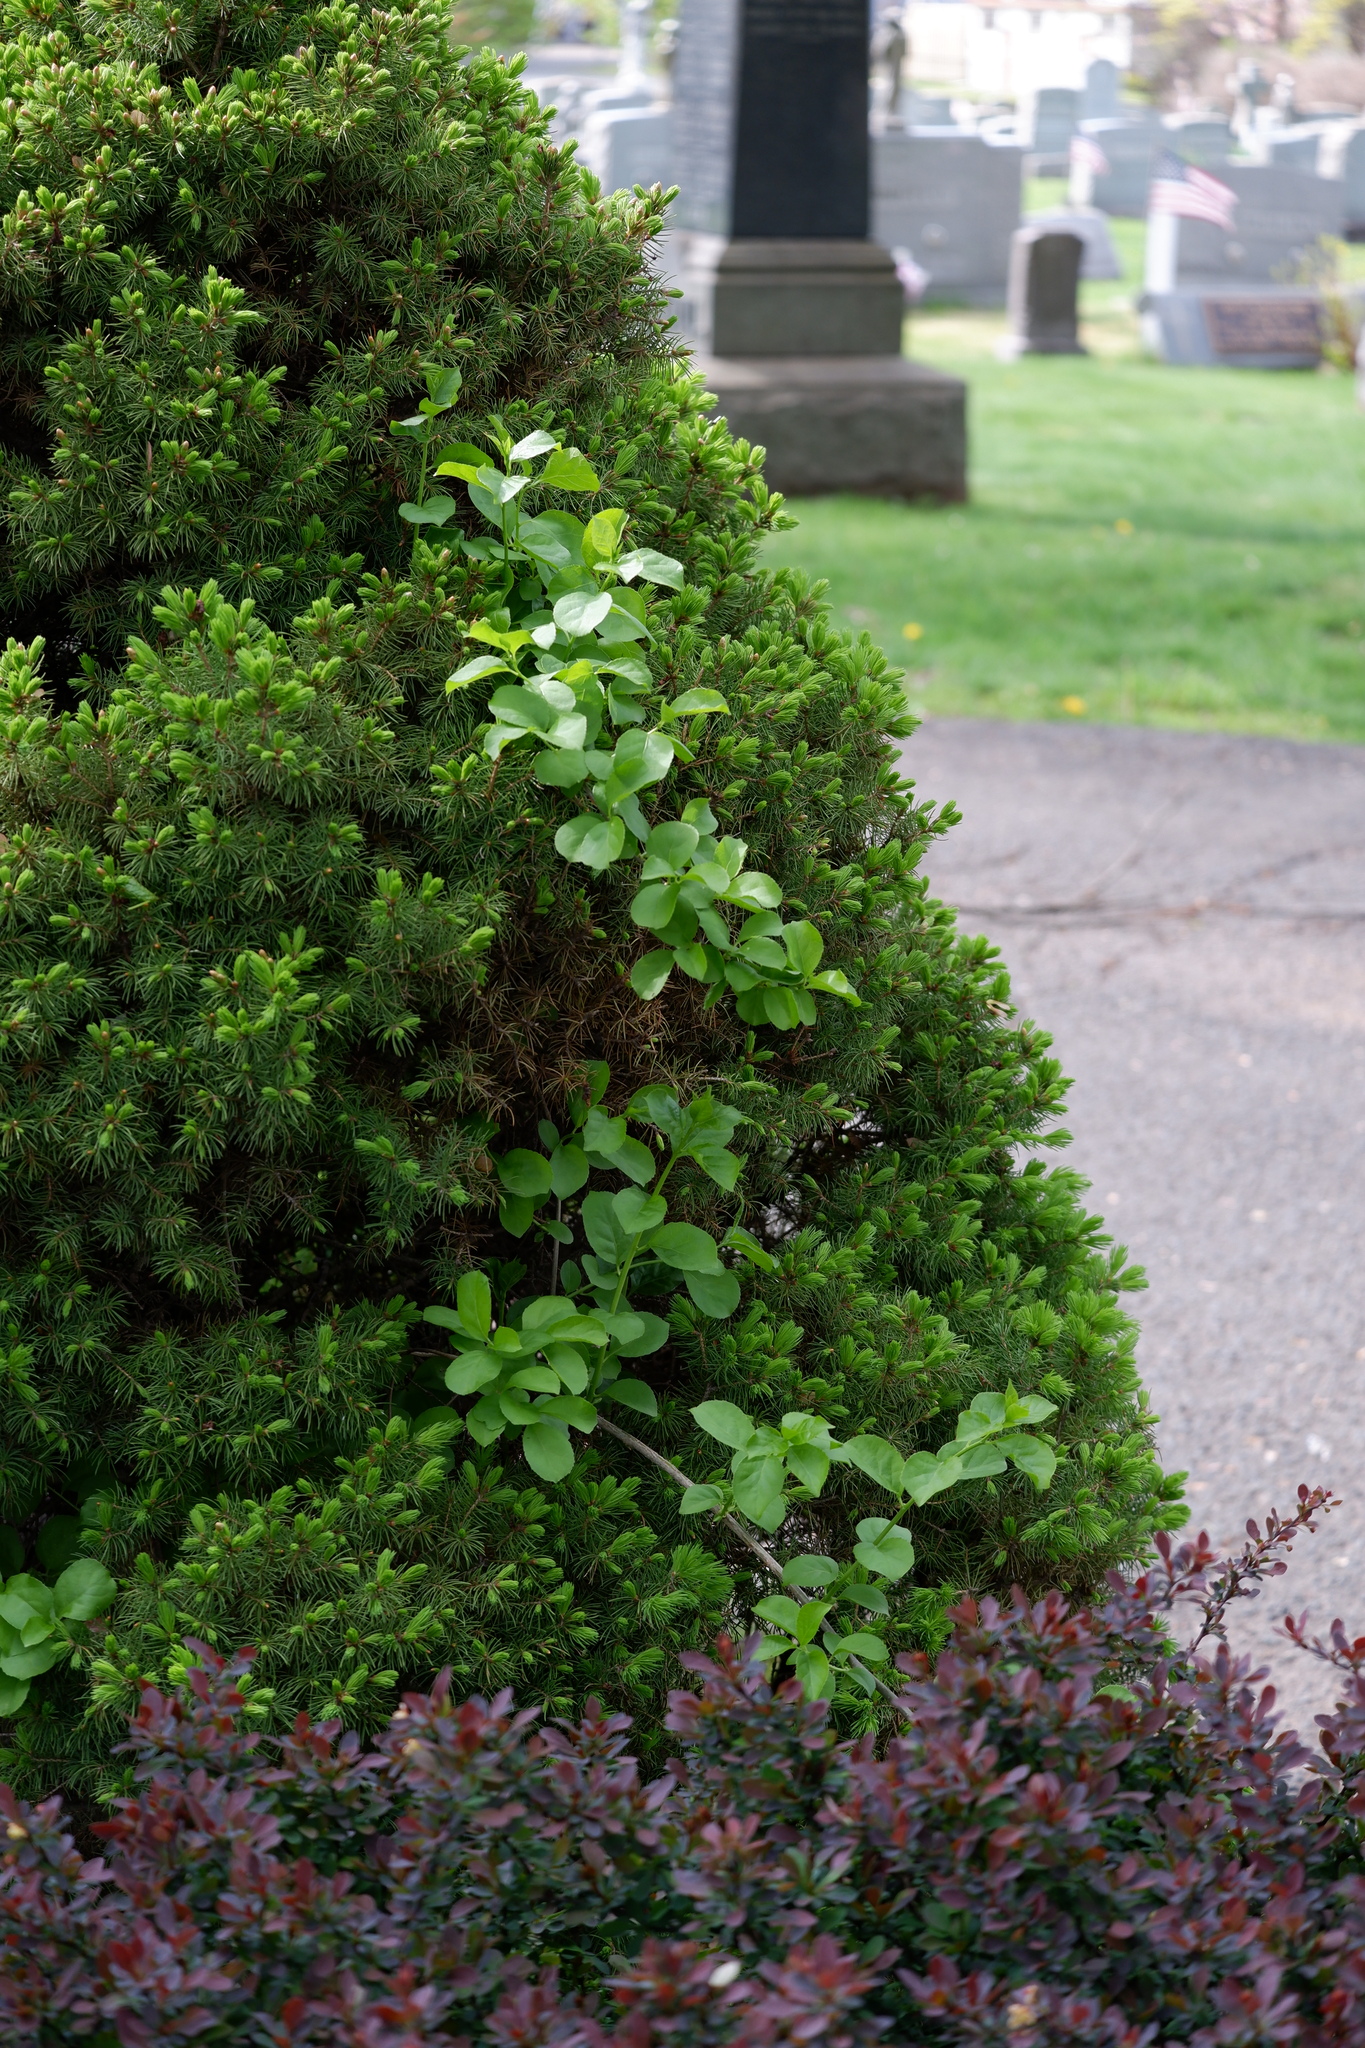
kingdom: Plantae
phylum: Tracheophyta
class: Magnoliopsida
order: Celastrales
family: Celastraceae
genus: Celastrus
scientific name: Celastrus orbiculatus
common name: Oriental bittersweet
